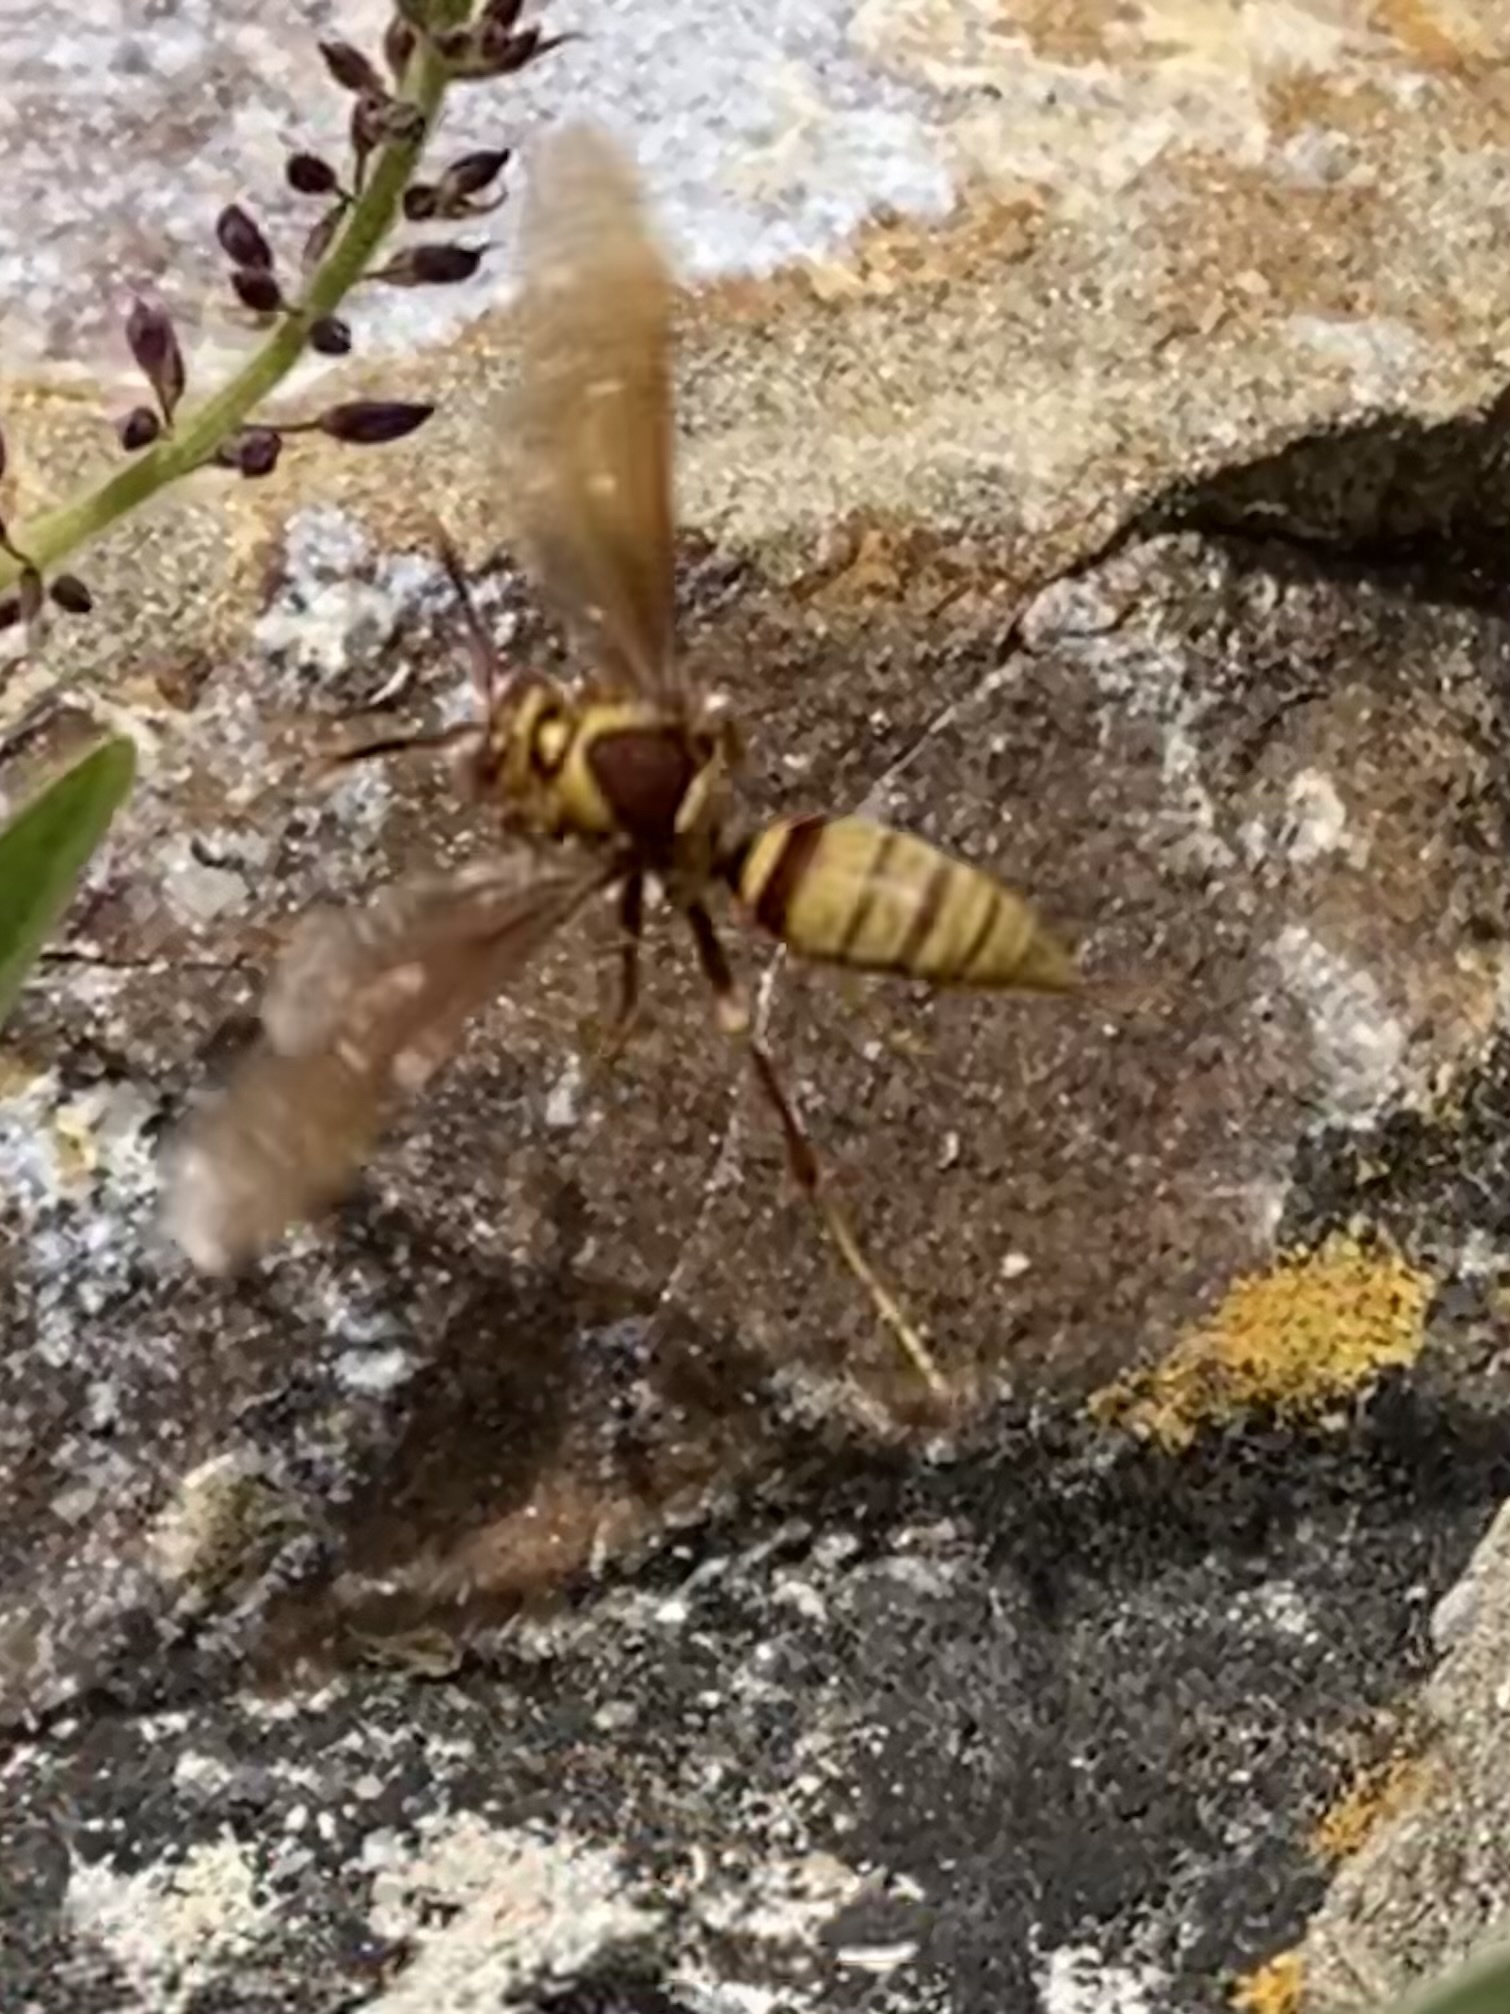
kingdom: Animalia
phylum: Arthropoda
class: Insecta
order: Hymenoptera
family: Eumenidae
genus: Polistes
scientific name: Polistes major
